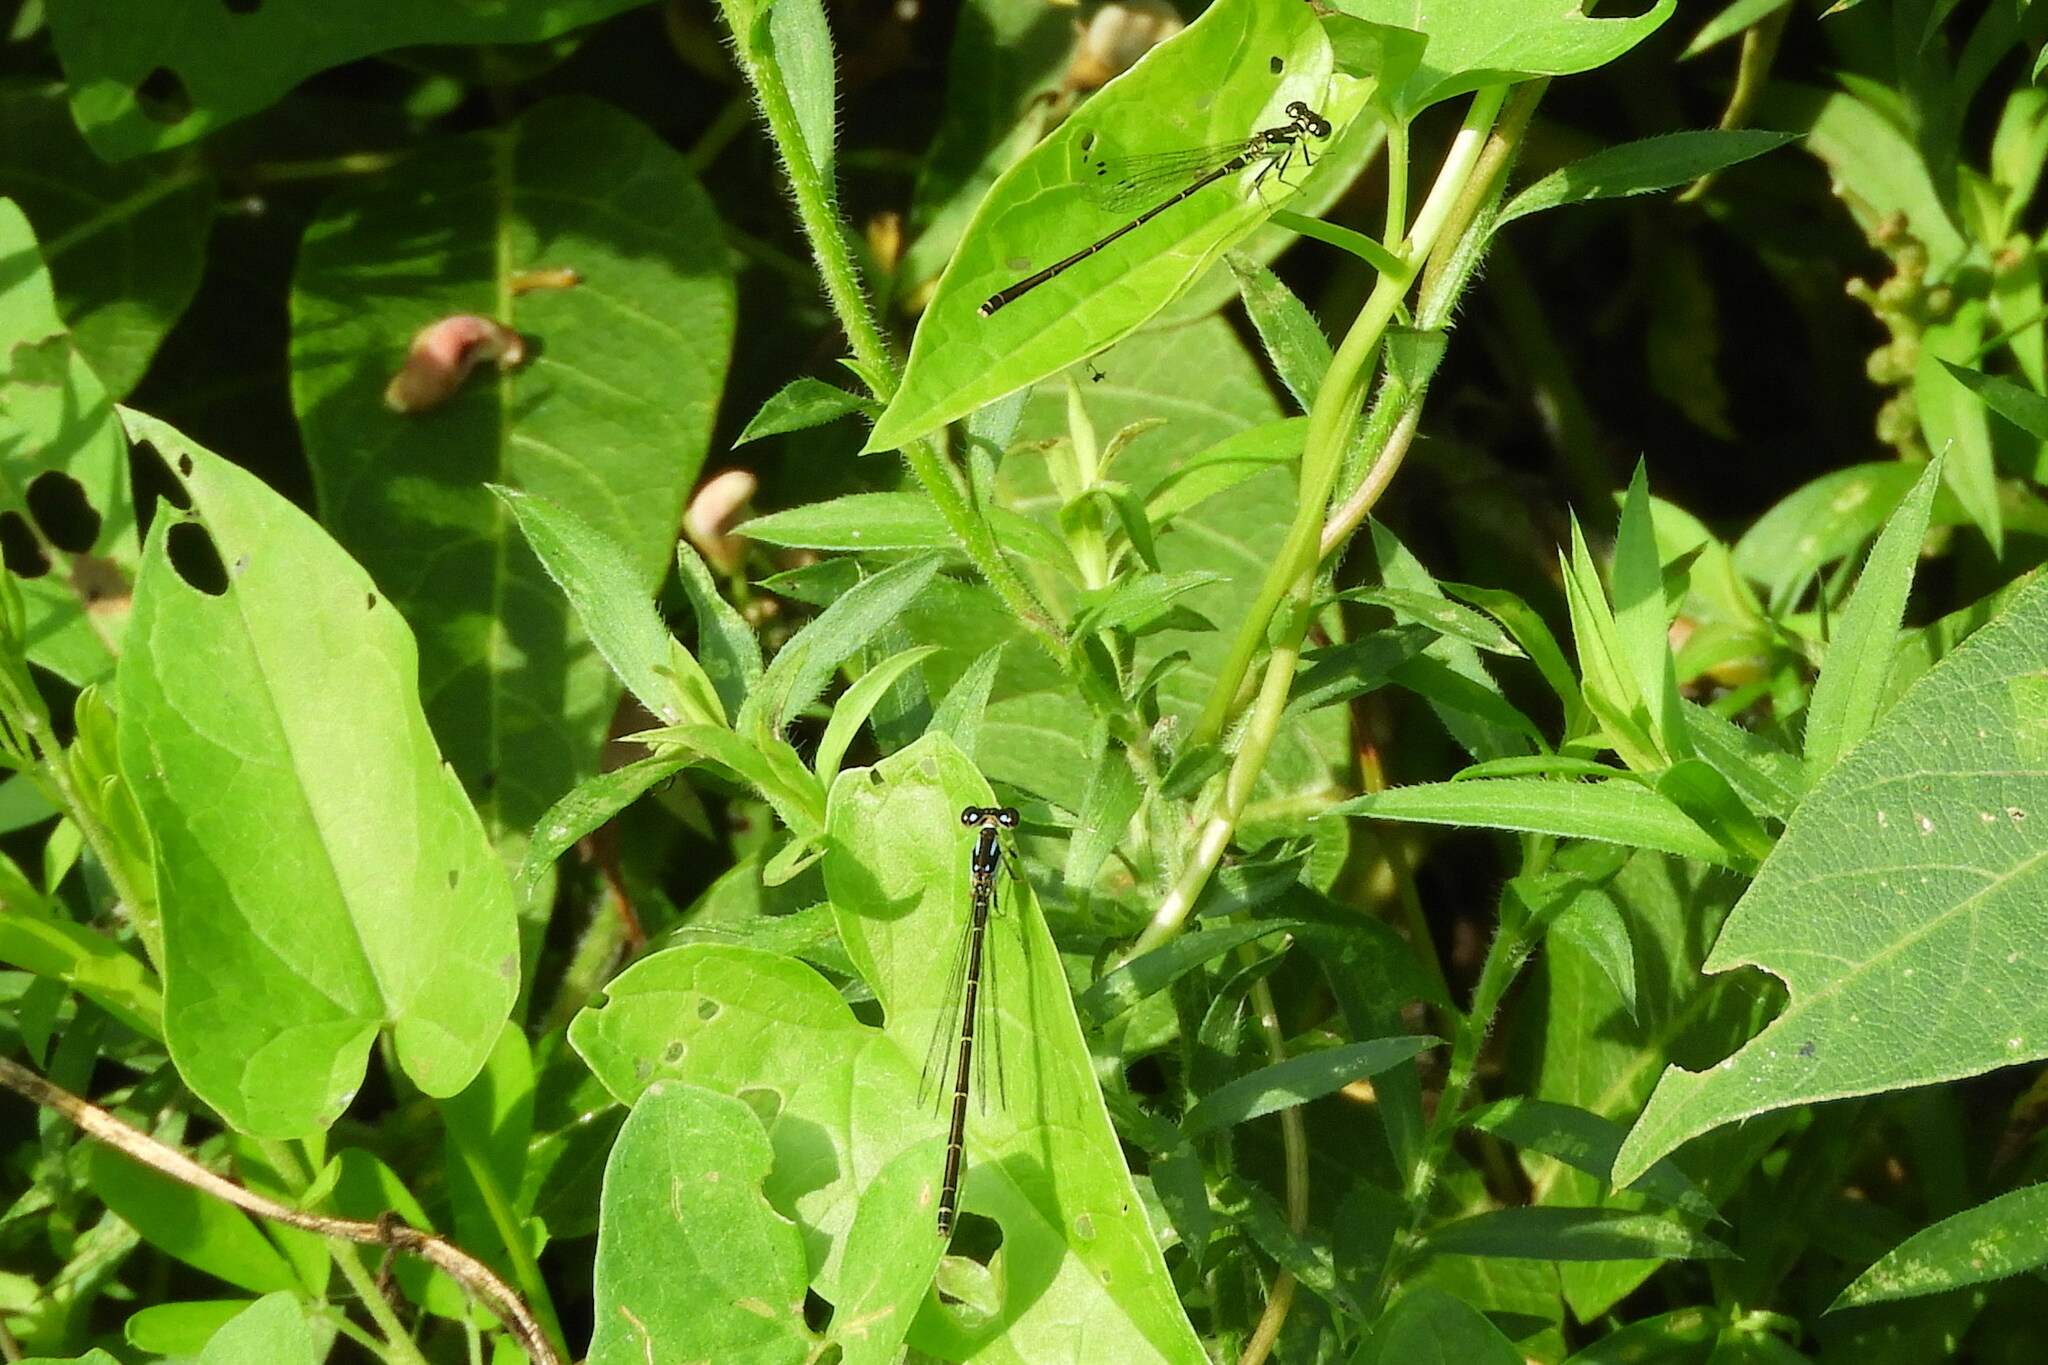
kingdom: Animalia
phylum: Arthropoda
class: Insecta
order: Odonata
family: Coenagrionidae
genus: Ischnura
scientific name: Ischnura posita
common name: Fragile forktail
